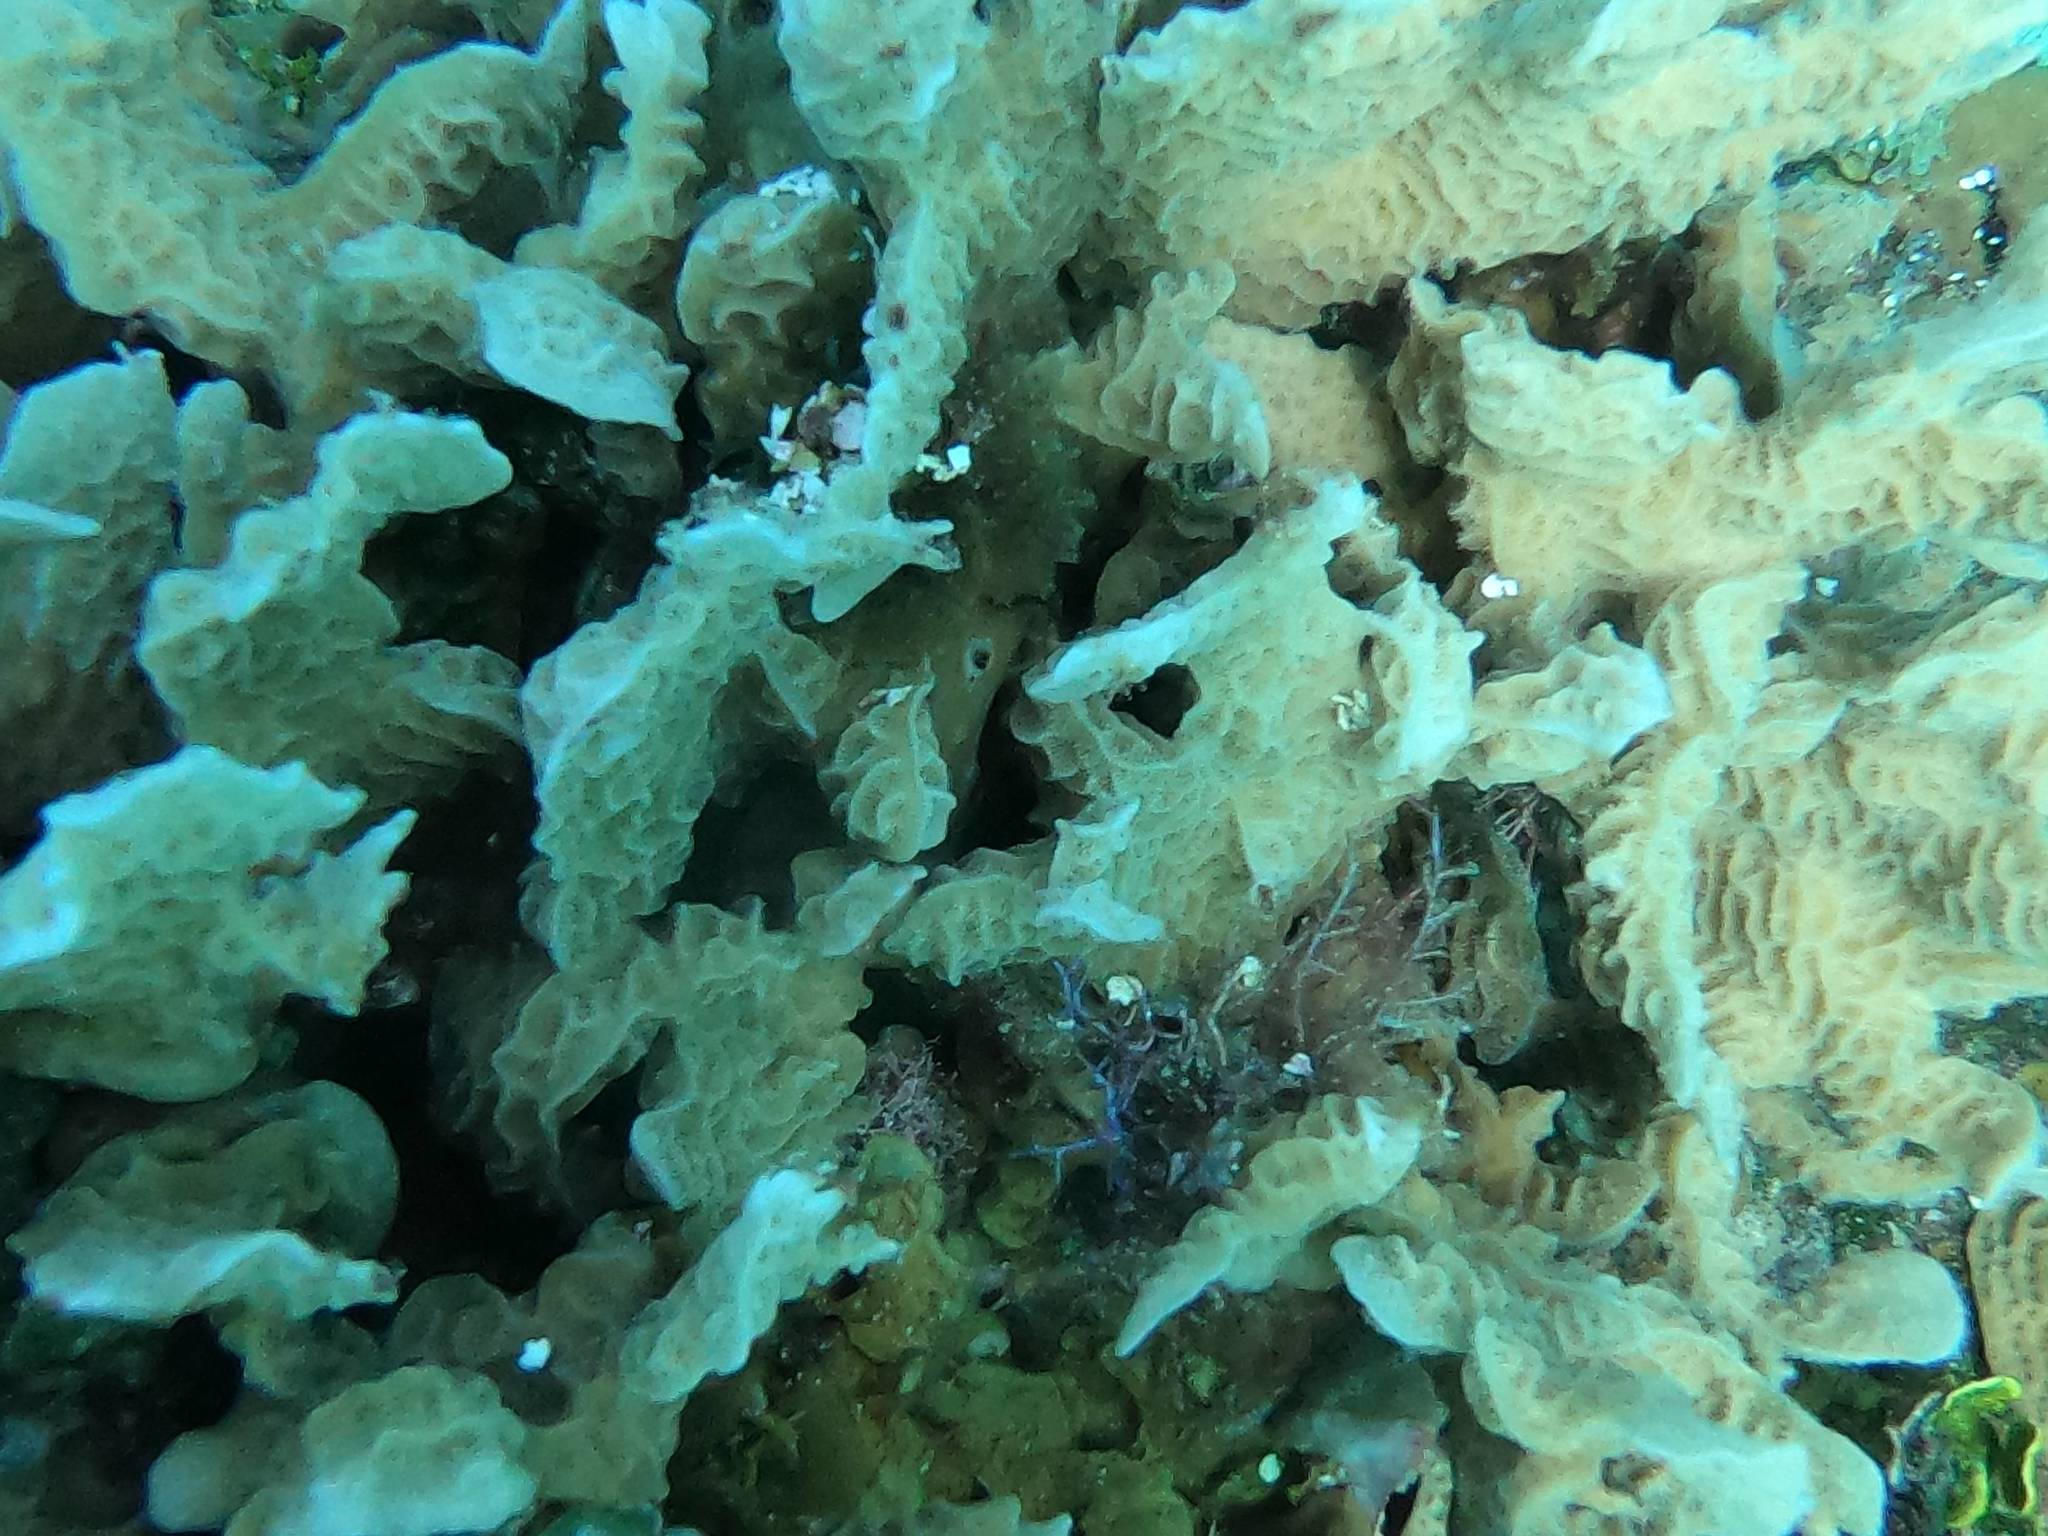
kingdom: Animalia
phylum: Cnidaria
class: Anthozoa
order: Scleractinia
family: Agariciidae
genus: Agaricia
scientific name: Agaricia tenuifolia
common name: Thin leaf lettuce coral
